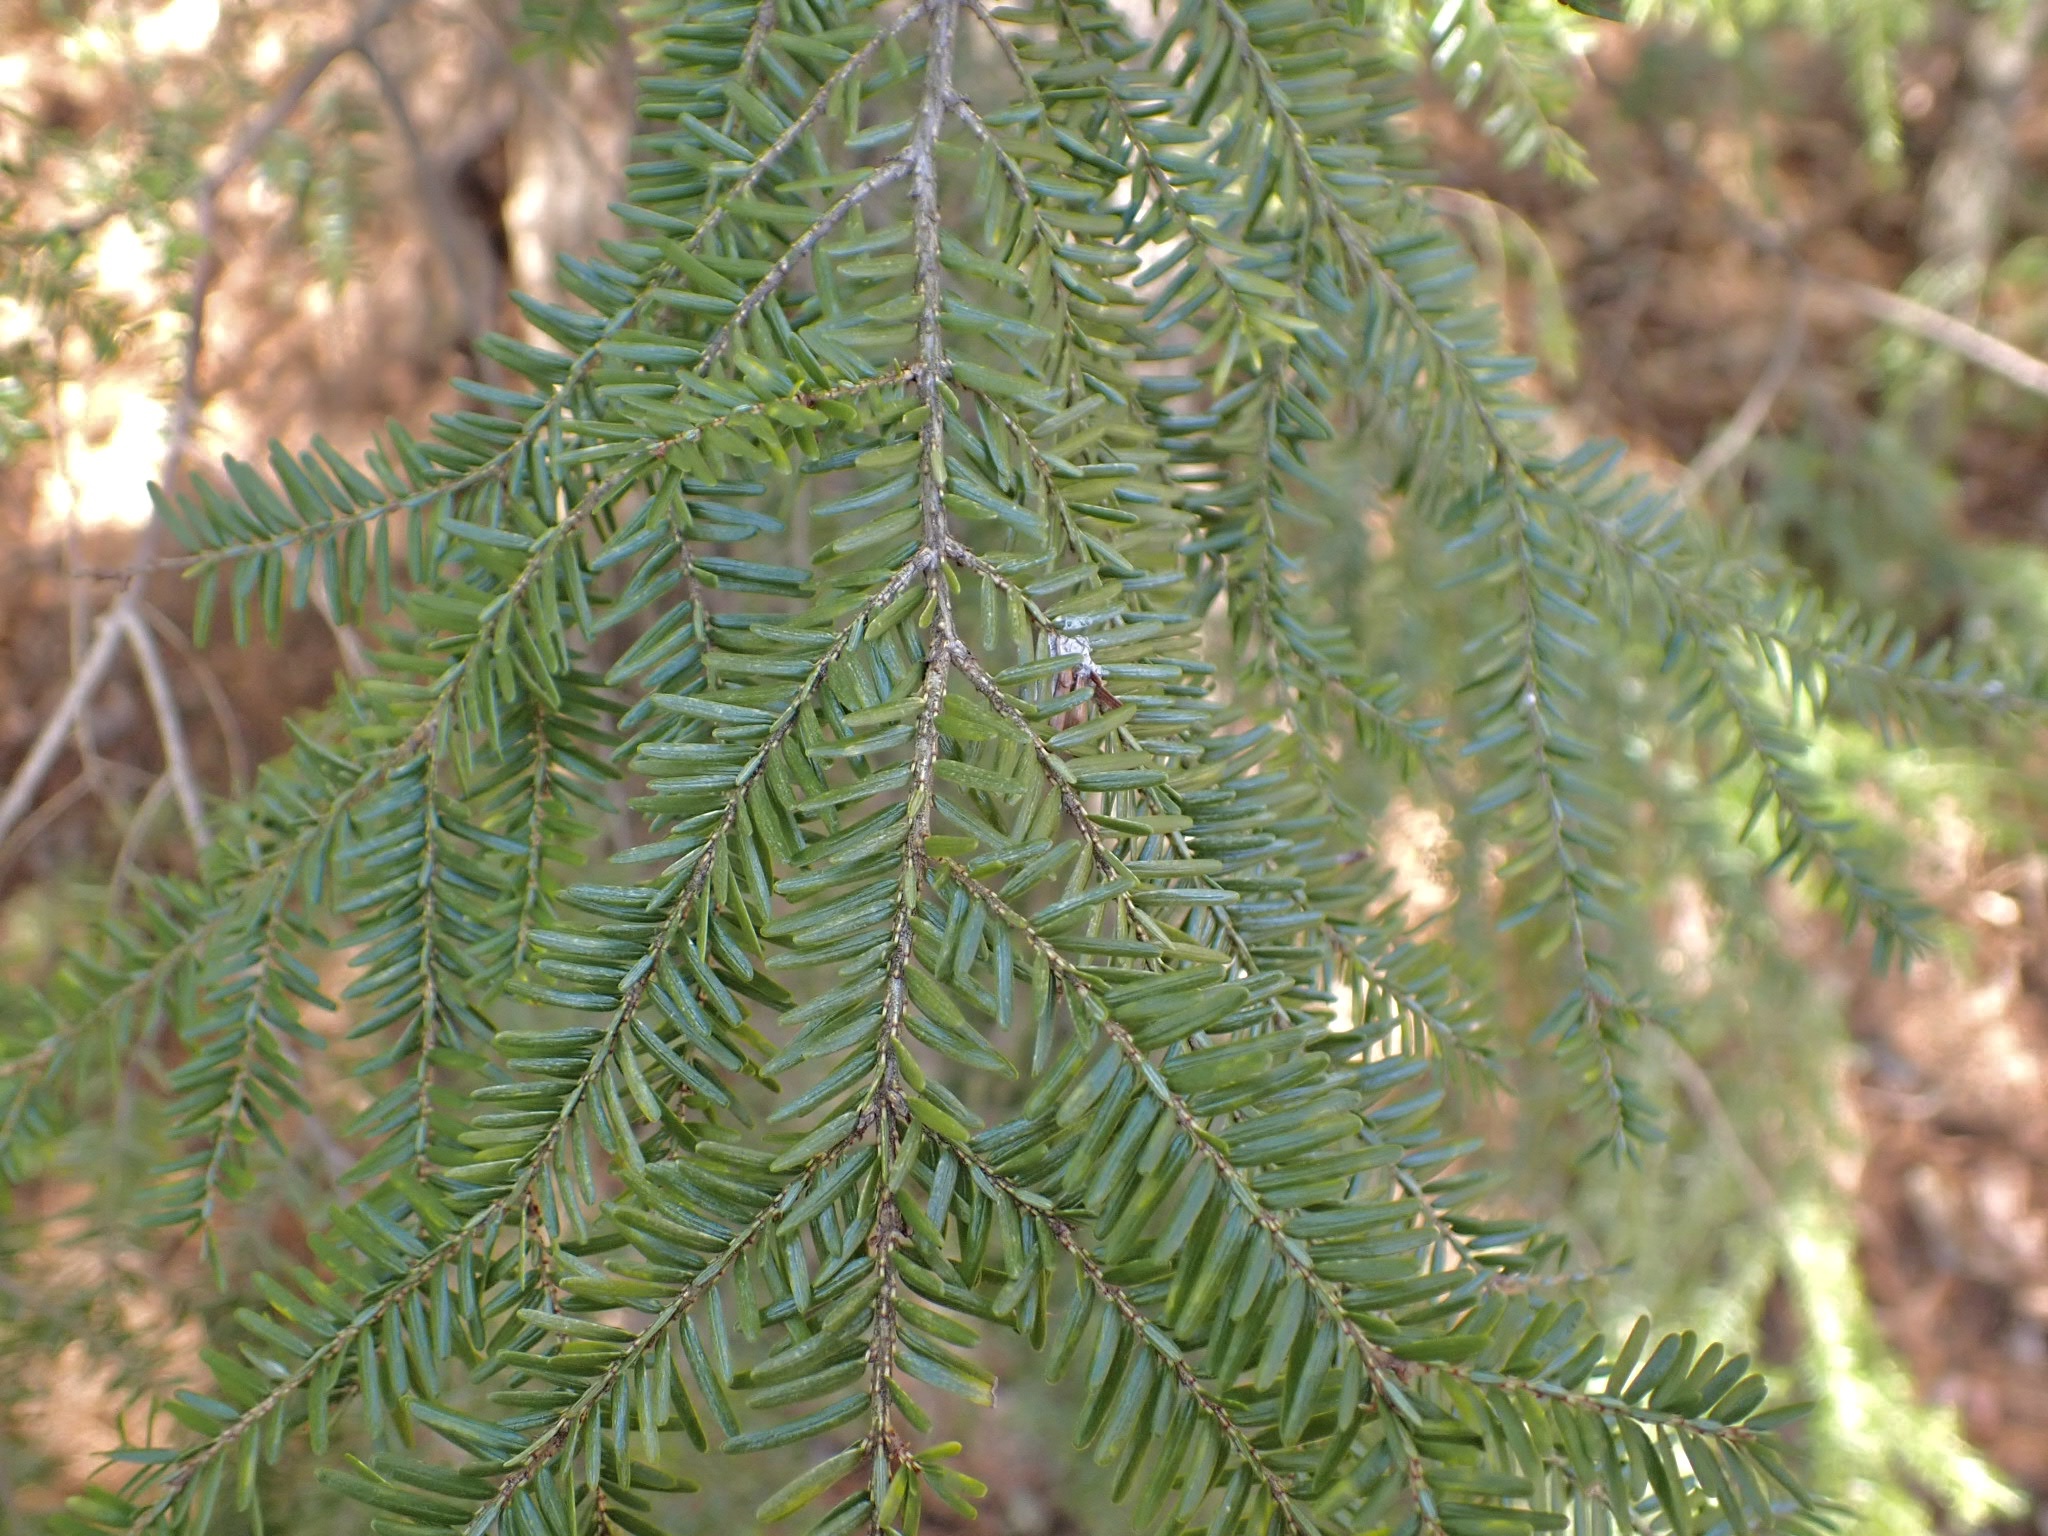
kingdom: Plantae
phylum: Tracheophyta
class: Pinopsida
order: Pinales
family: Pinaceae
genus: Tsuga
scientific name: Tsuga canadensis
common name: Eastern hemlock
